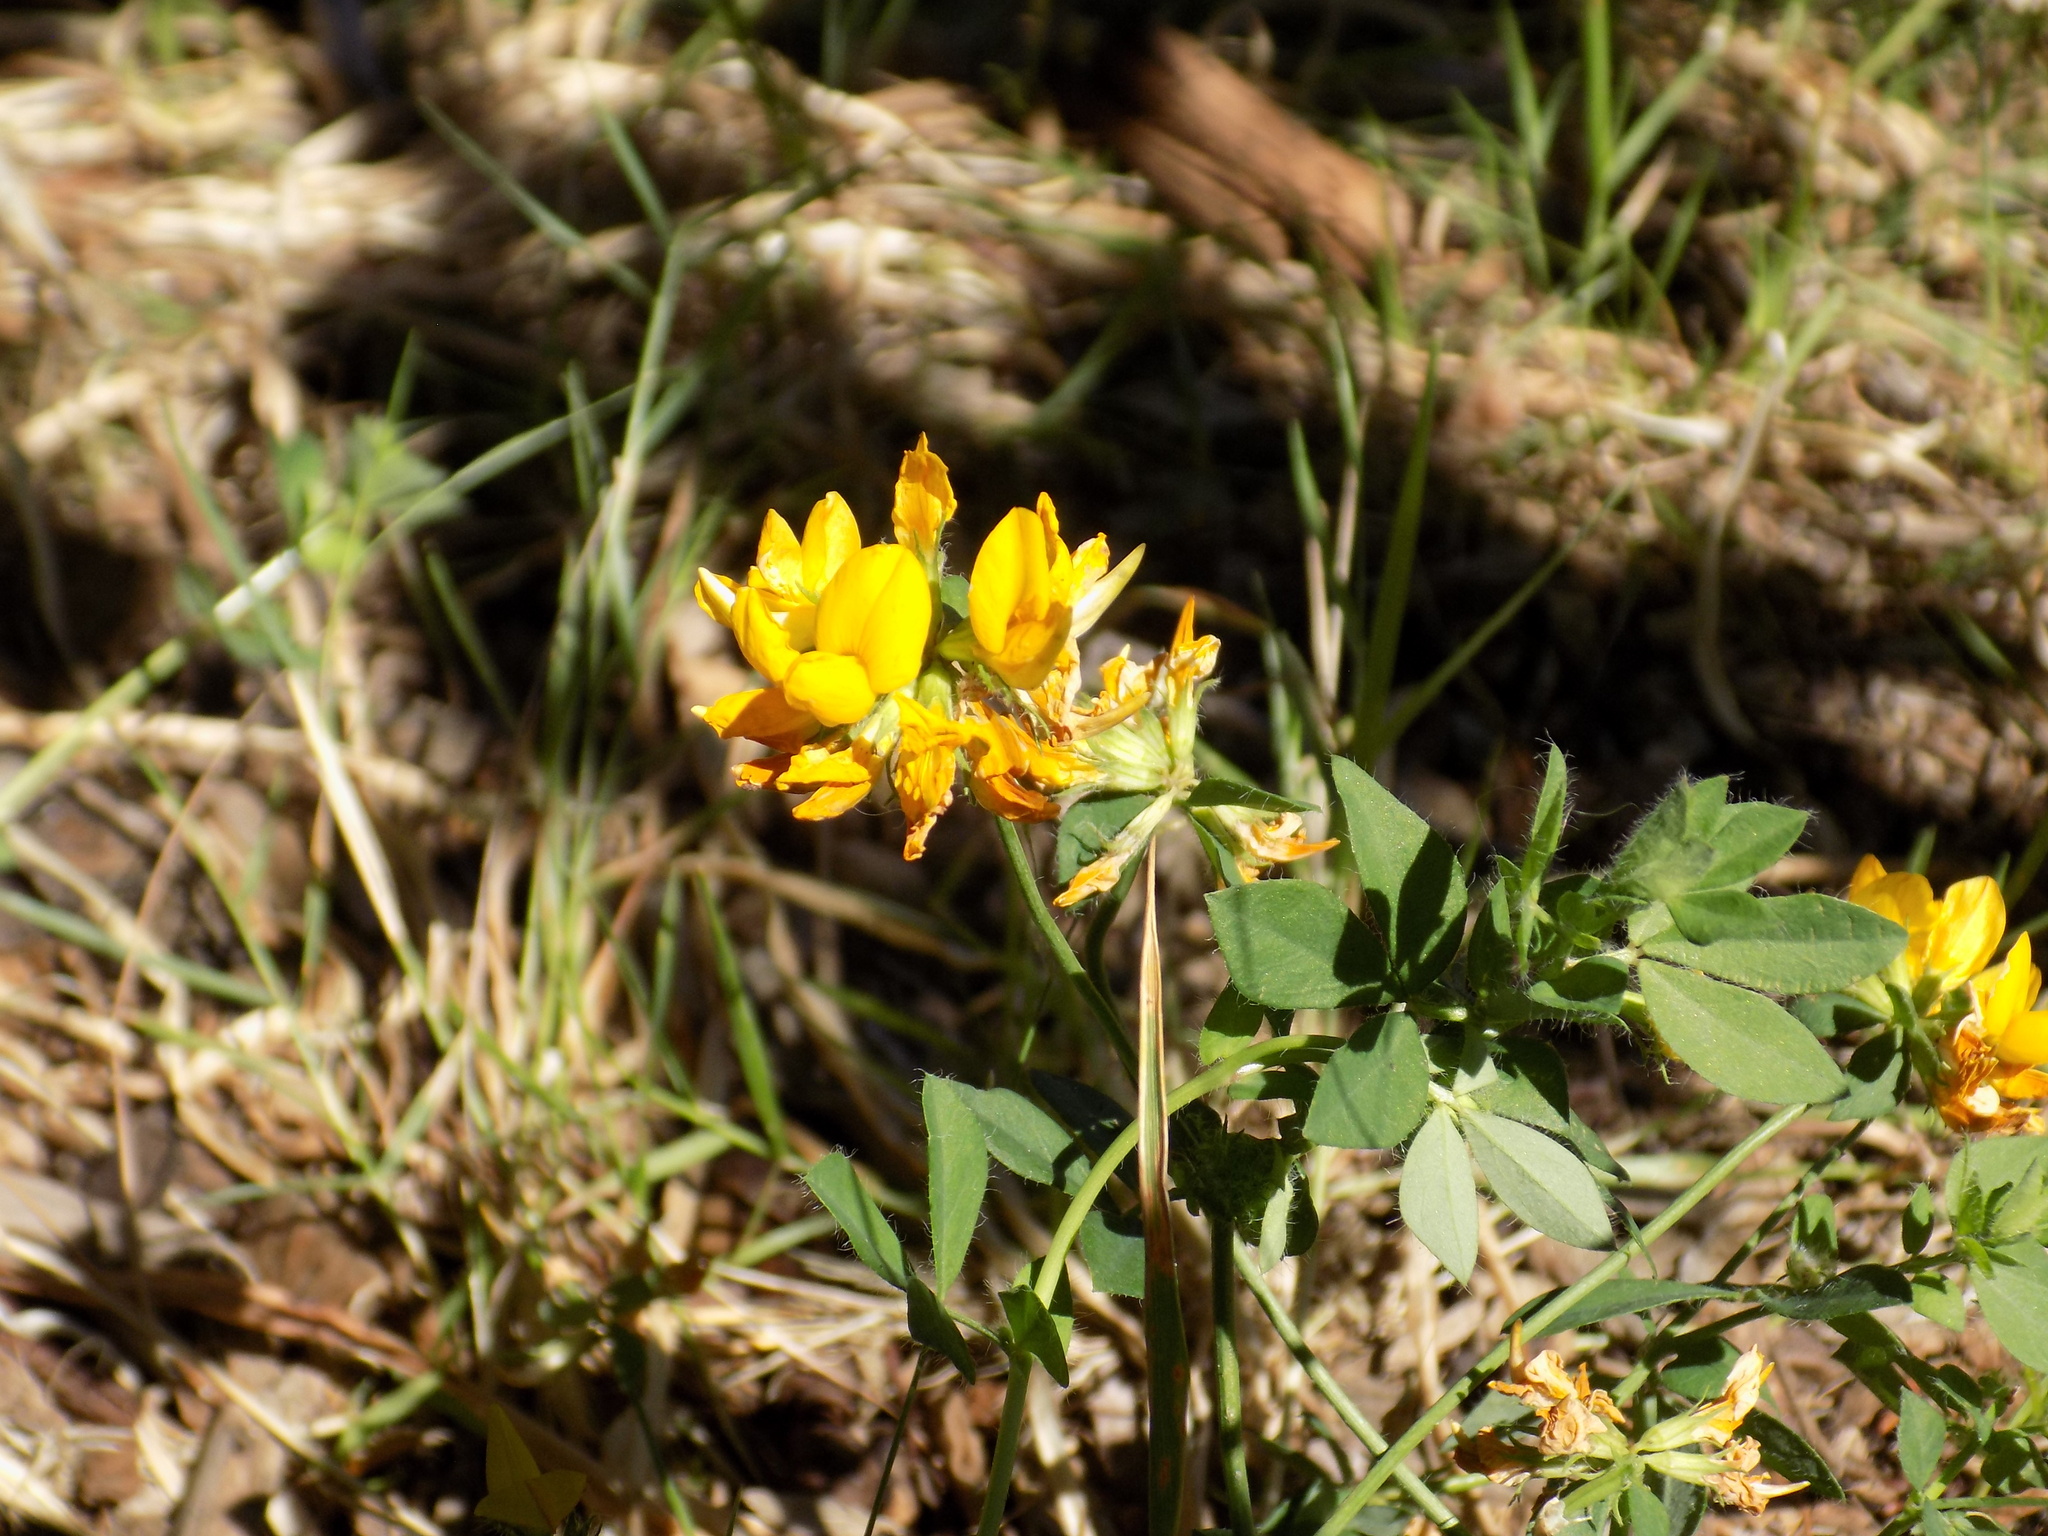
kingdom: Plantae
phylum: Tracheophyta
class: Magnoliopsida
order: Fabales
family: Fabaceae
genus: Lotus
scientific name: Lotus pedunculatus
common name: Greater birdsfoot-trefoil
